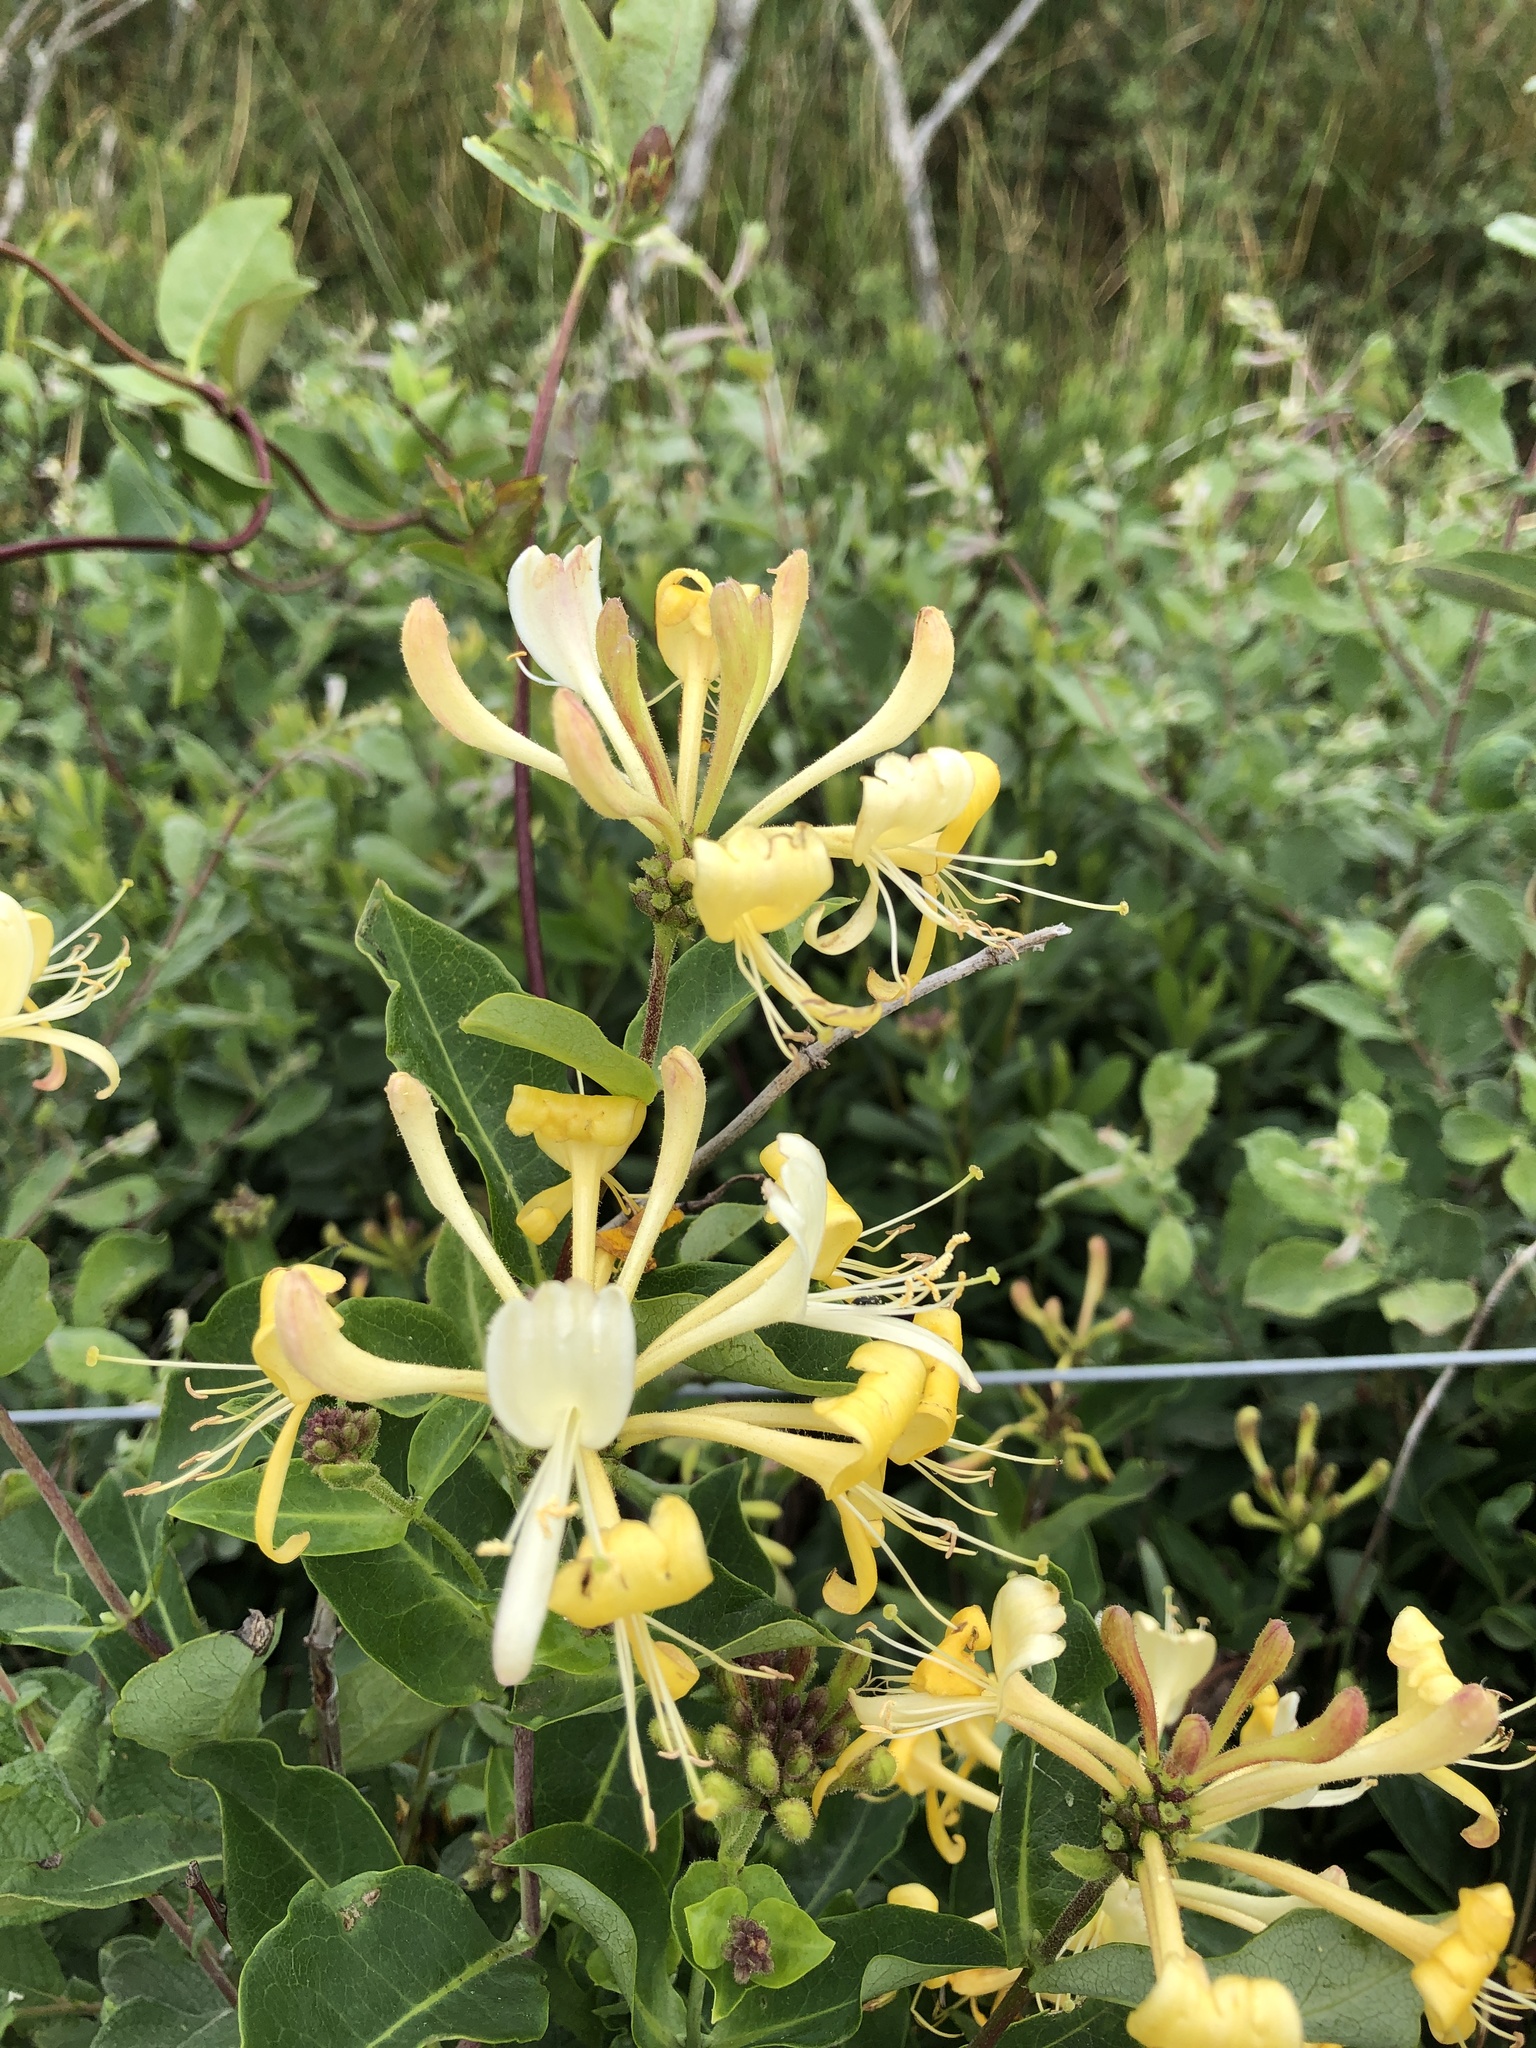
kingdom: Plantae
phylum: Tracheophyta
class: Magnoliopsida
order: Dipsacales
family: Caprifoliaceae
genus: Lonicera
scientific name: Lonicera periclymenum
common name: European honeysuckle
